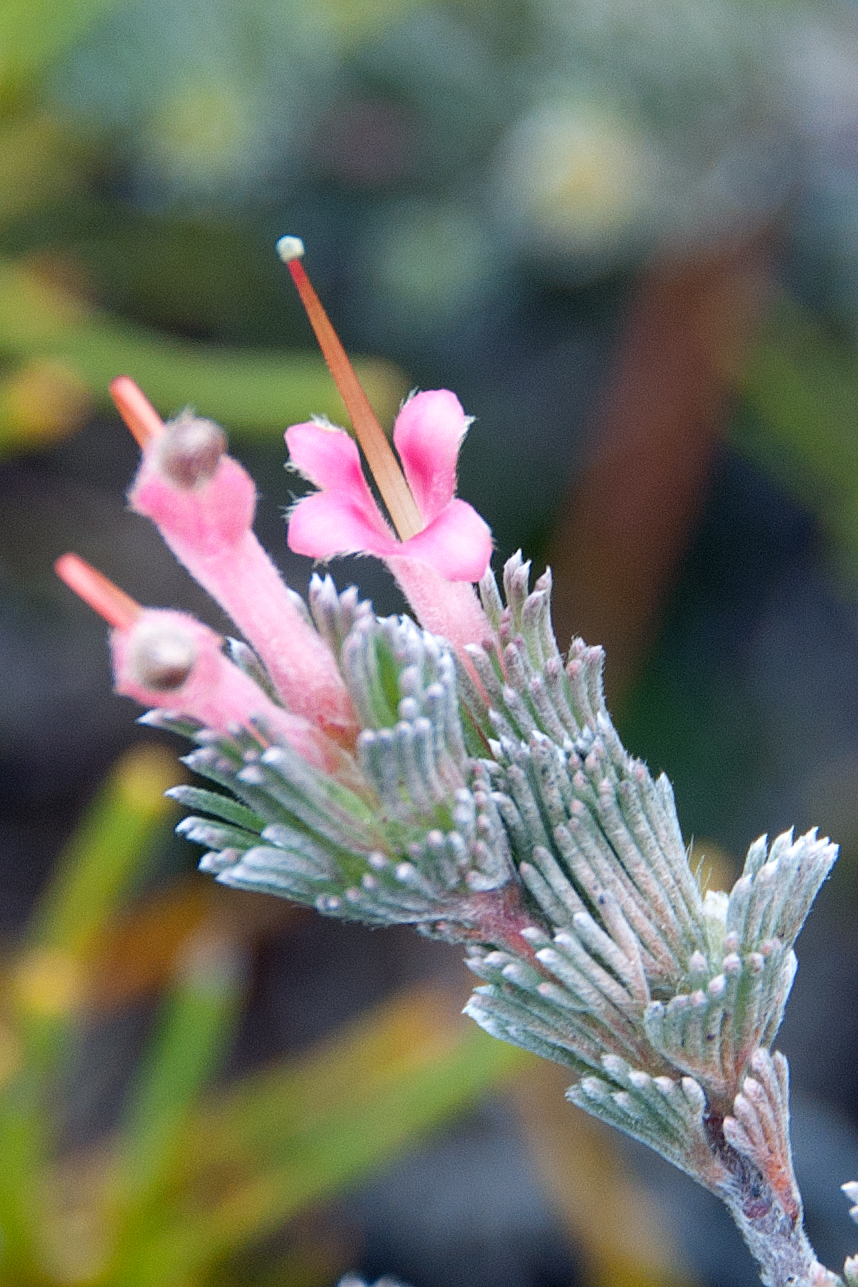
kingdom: Plantae
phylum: Tracheophyta
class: Magnoliopsida
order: Proteales
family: Proteaceae
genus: Adenanthos
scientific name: Adenanthos macropodianus
